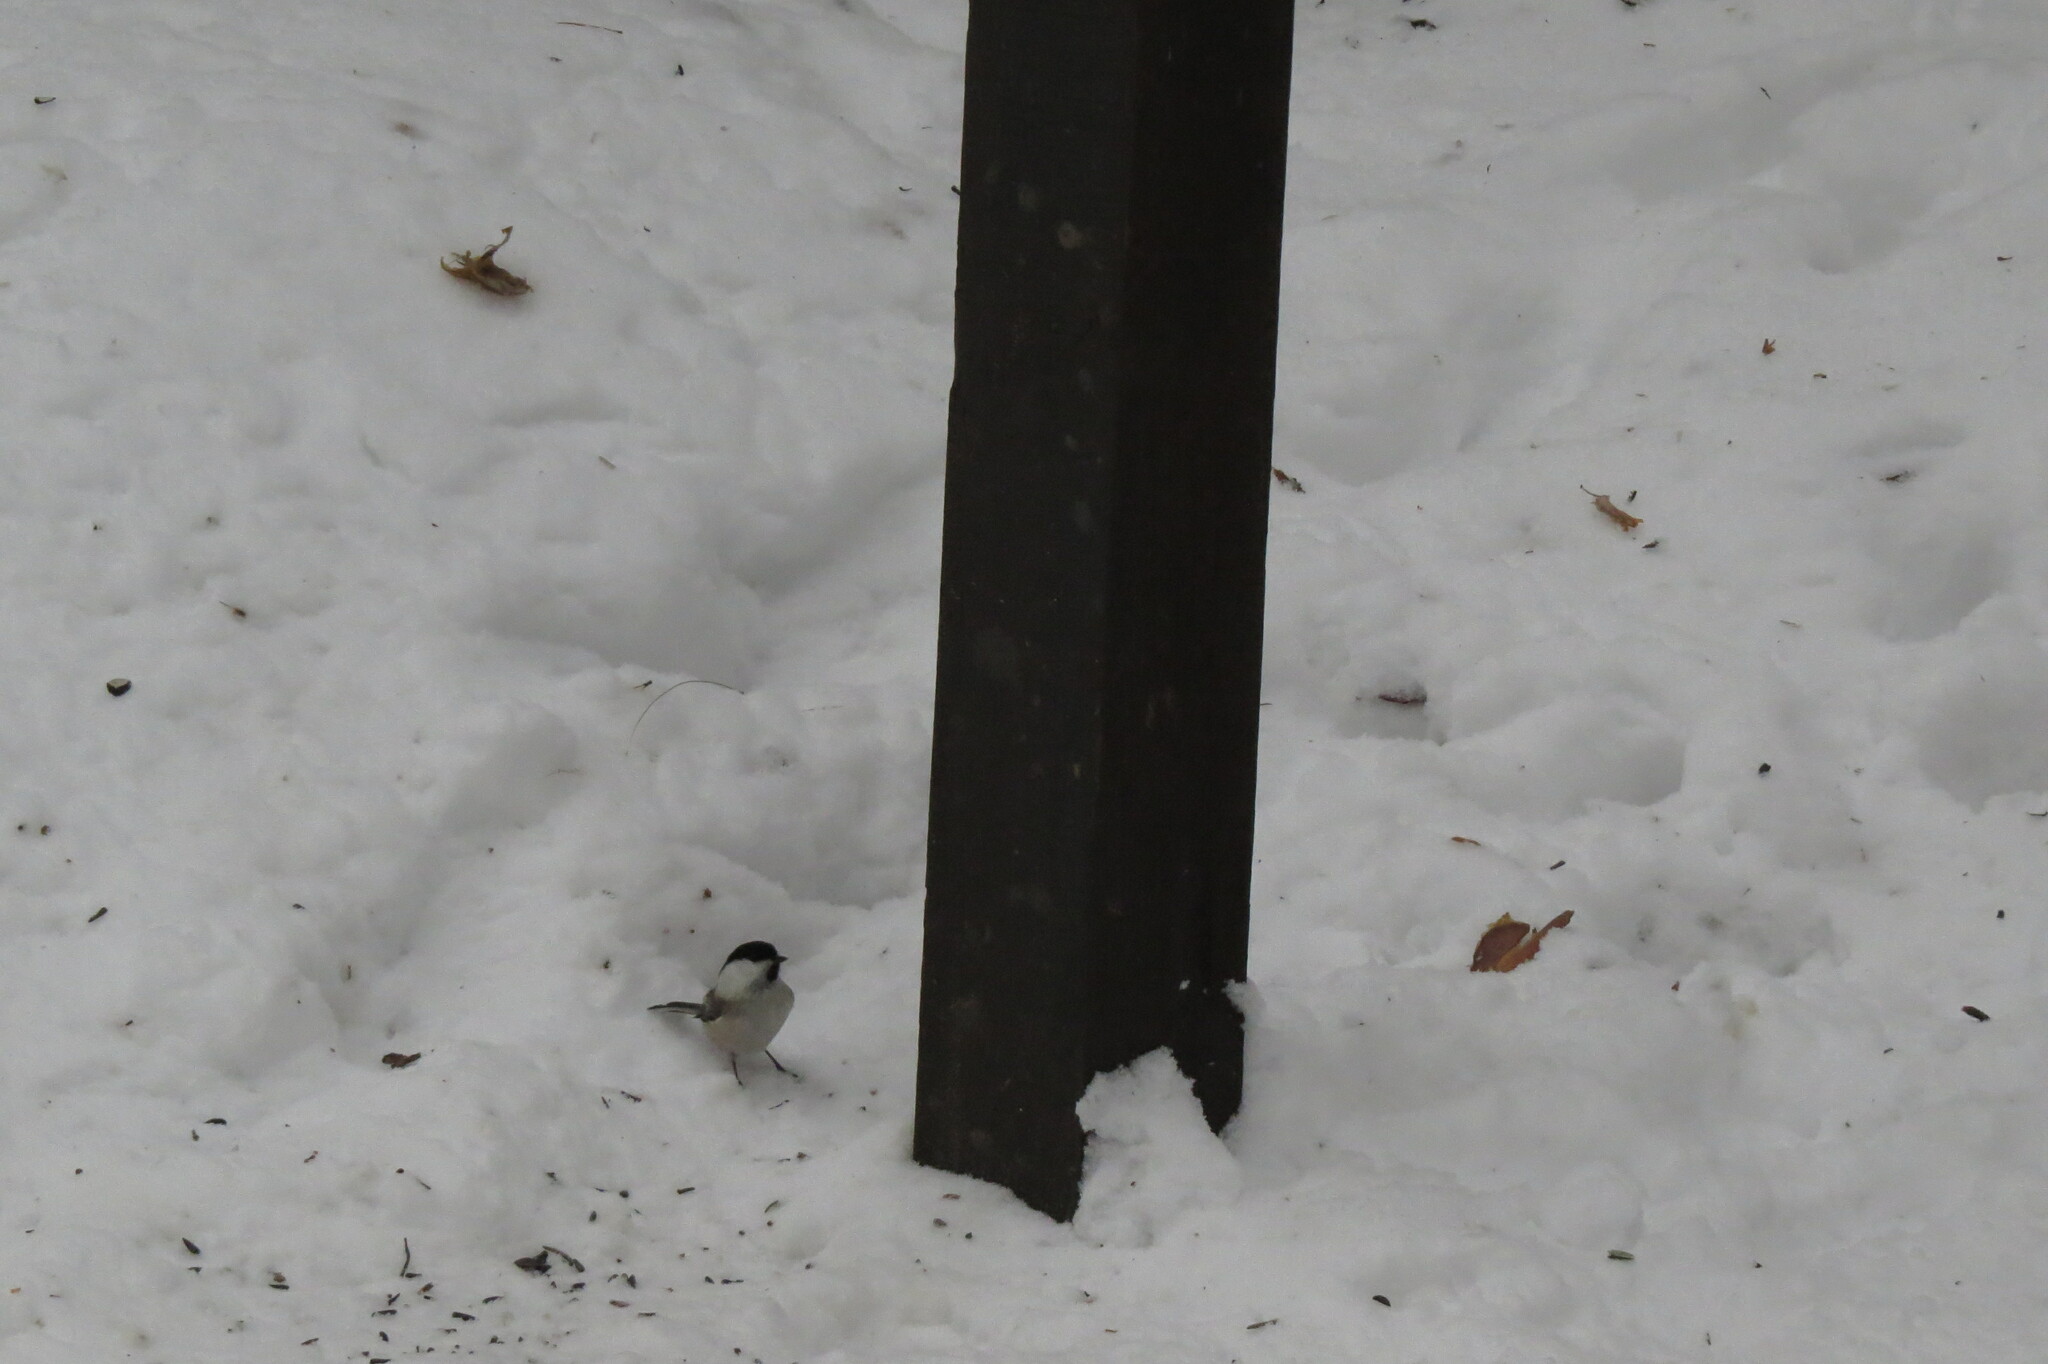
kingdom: Animalia
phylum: Chordata
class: Aves
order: Passeriformes
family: Paridae
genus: Poecile
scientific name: Poecile montanus
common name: Willow tit
